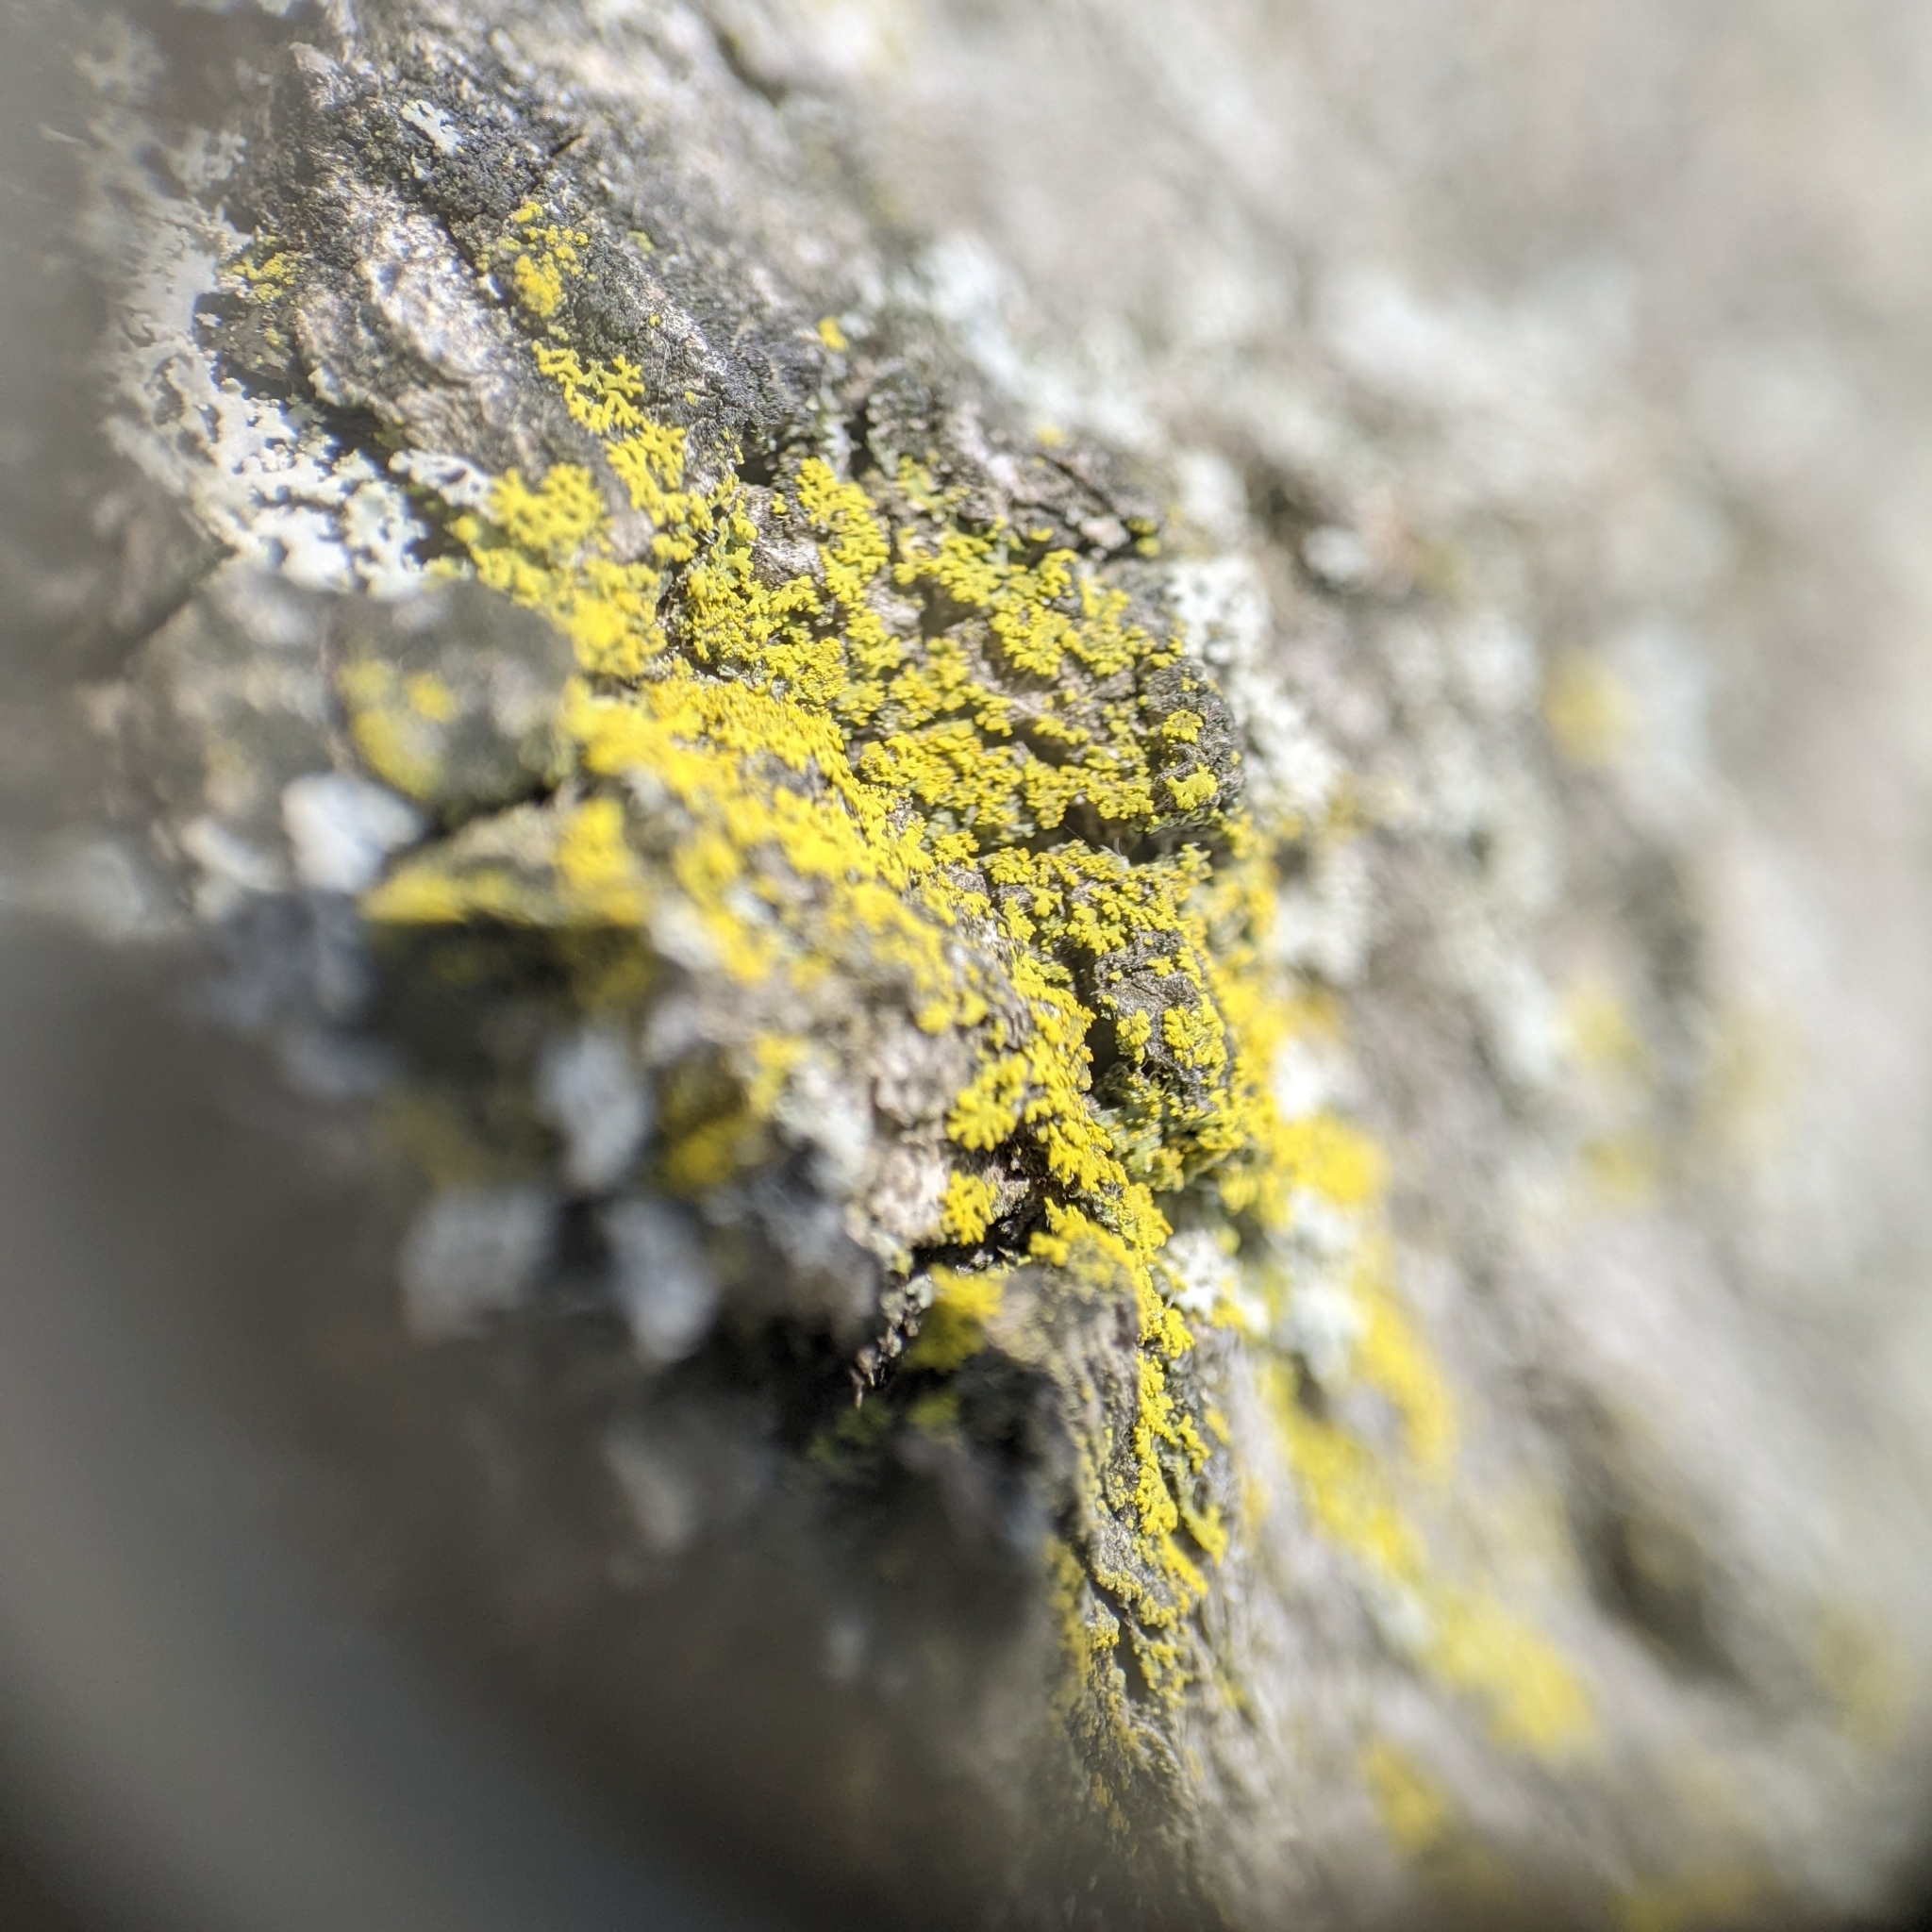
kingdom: Fungi
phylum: Ascomycota
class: Candelariomycetes
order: Candelariales
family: Candelariaceae
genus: Candelaria
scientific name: Candelaria concolor
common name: Candleflame lichen
